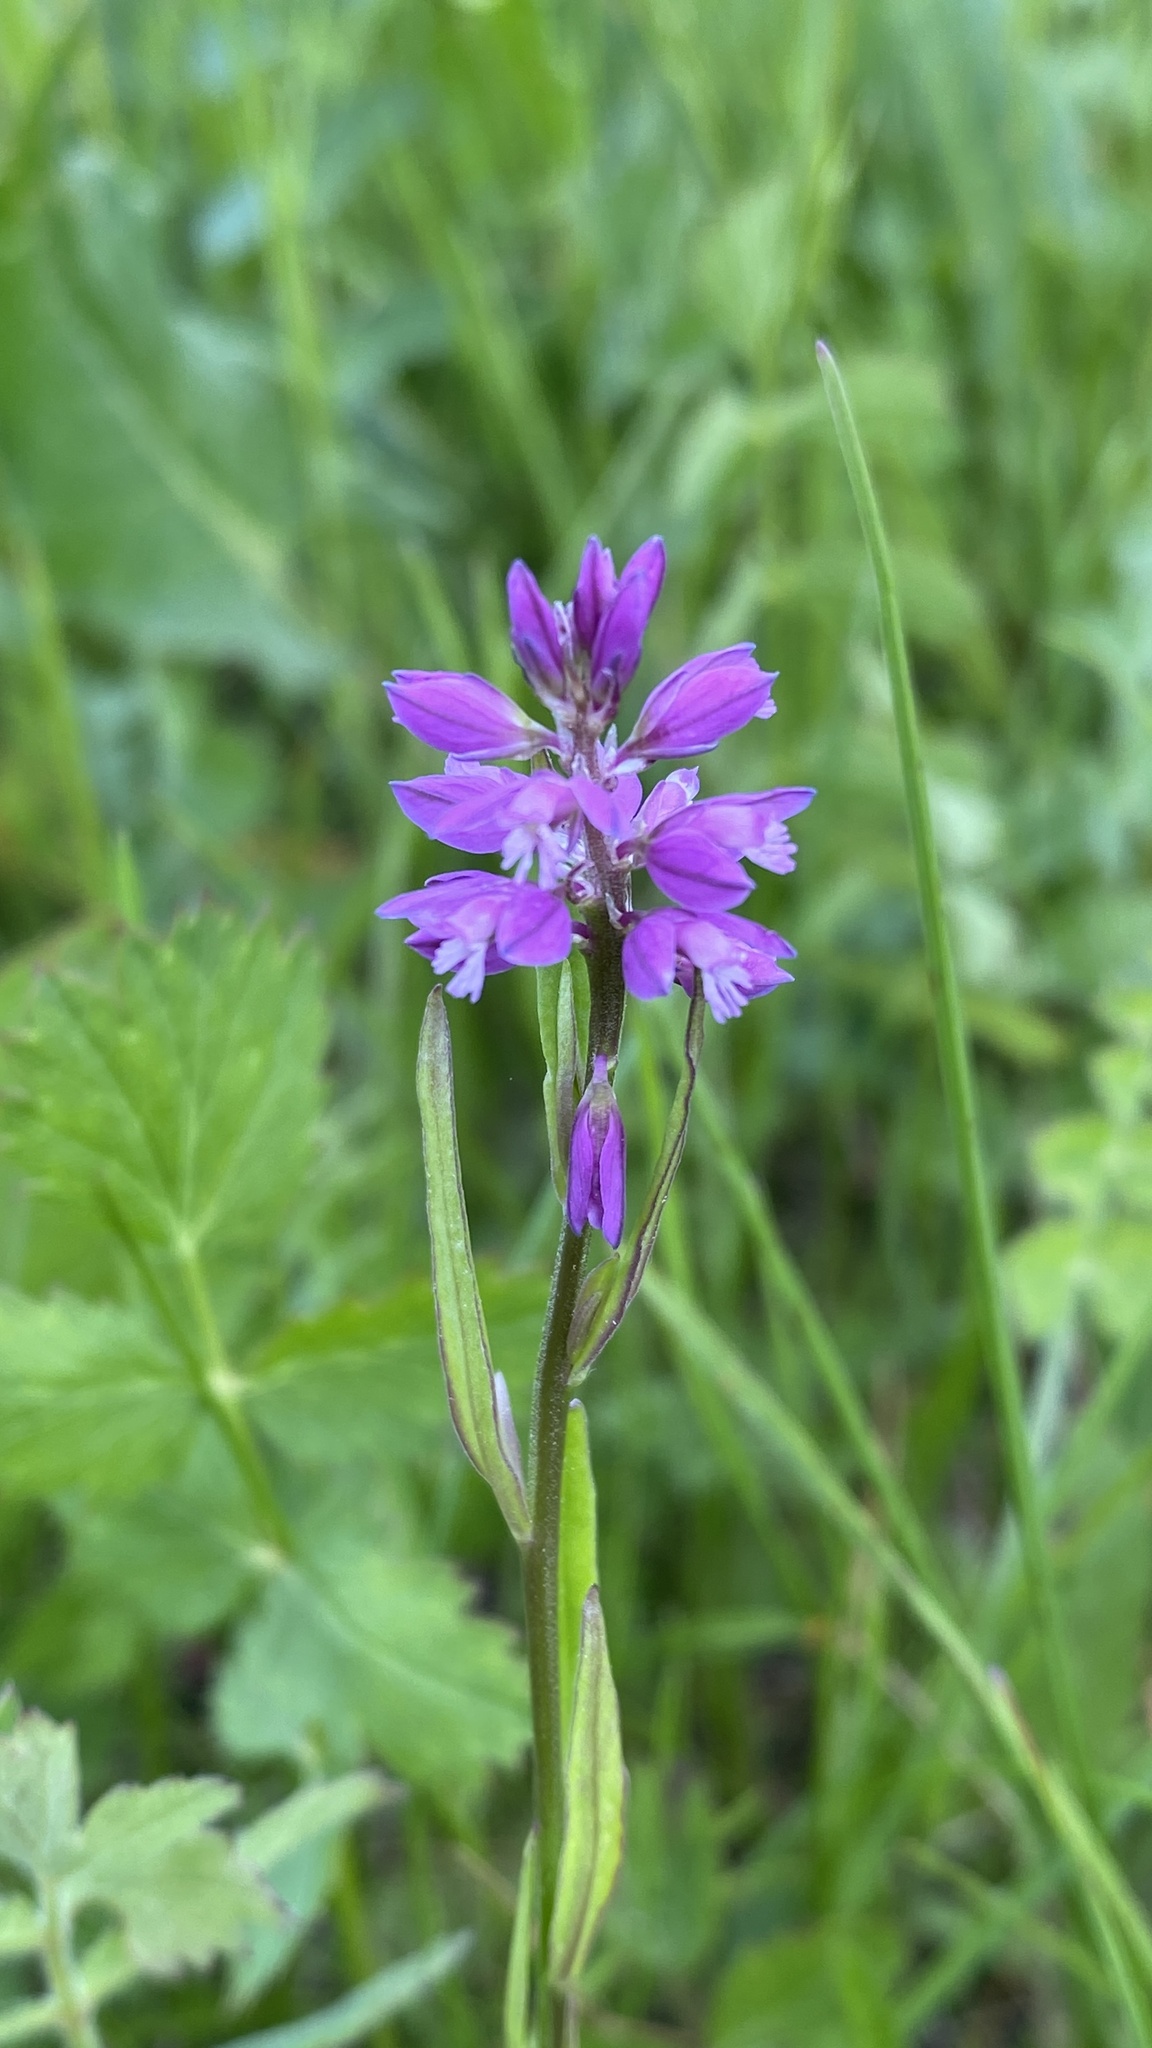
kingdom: Plantae
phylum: Tracheophyta
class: Magnoliopsida
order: Fabales
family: Polygalaceae
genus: Polygala
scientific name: Polygala comosa
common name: Tufted milkwort
